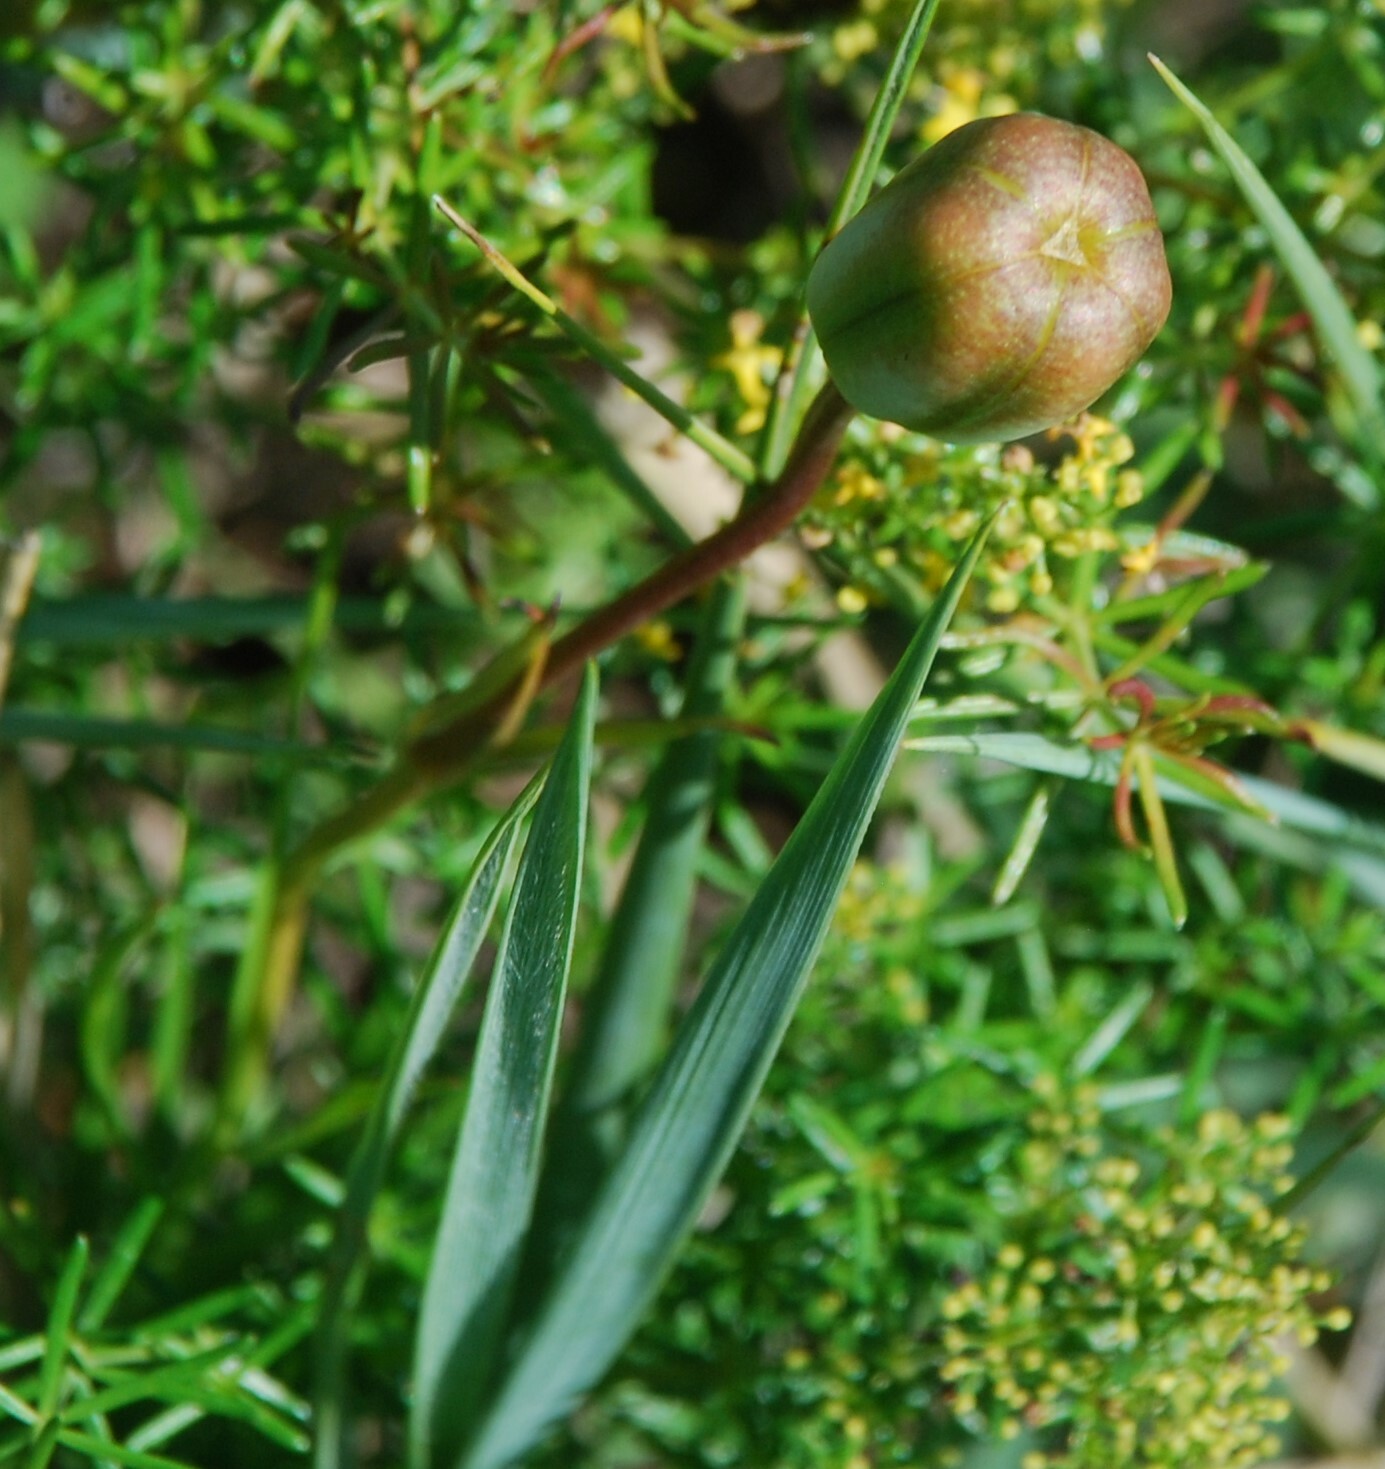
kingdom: Plantae
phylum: Tracheophyta
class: Liliopsida
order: Liliales
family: Liliaceae
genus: Lilium
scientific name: Lilium pumilum
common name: Coral lily
